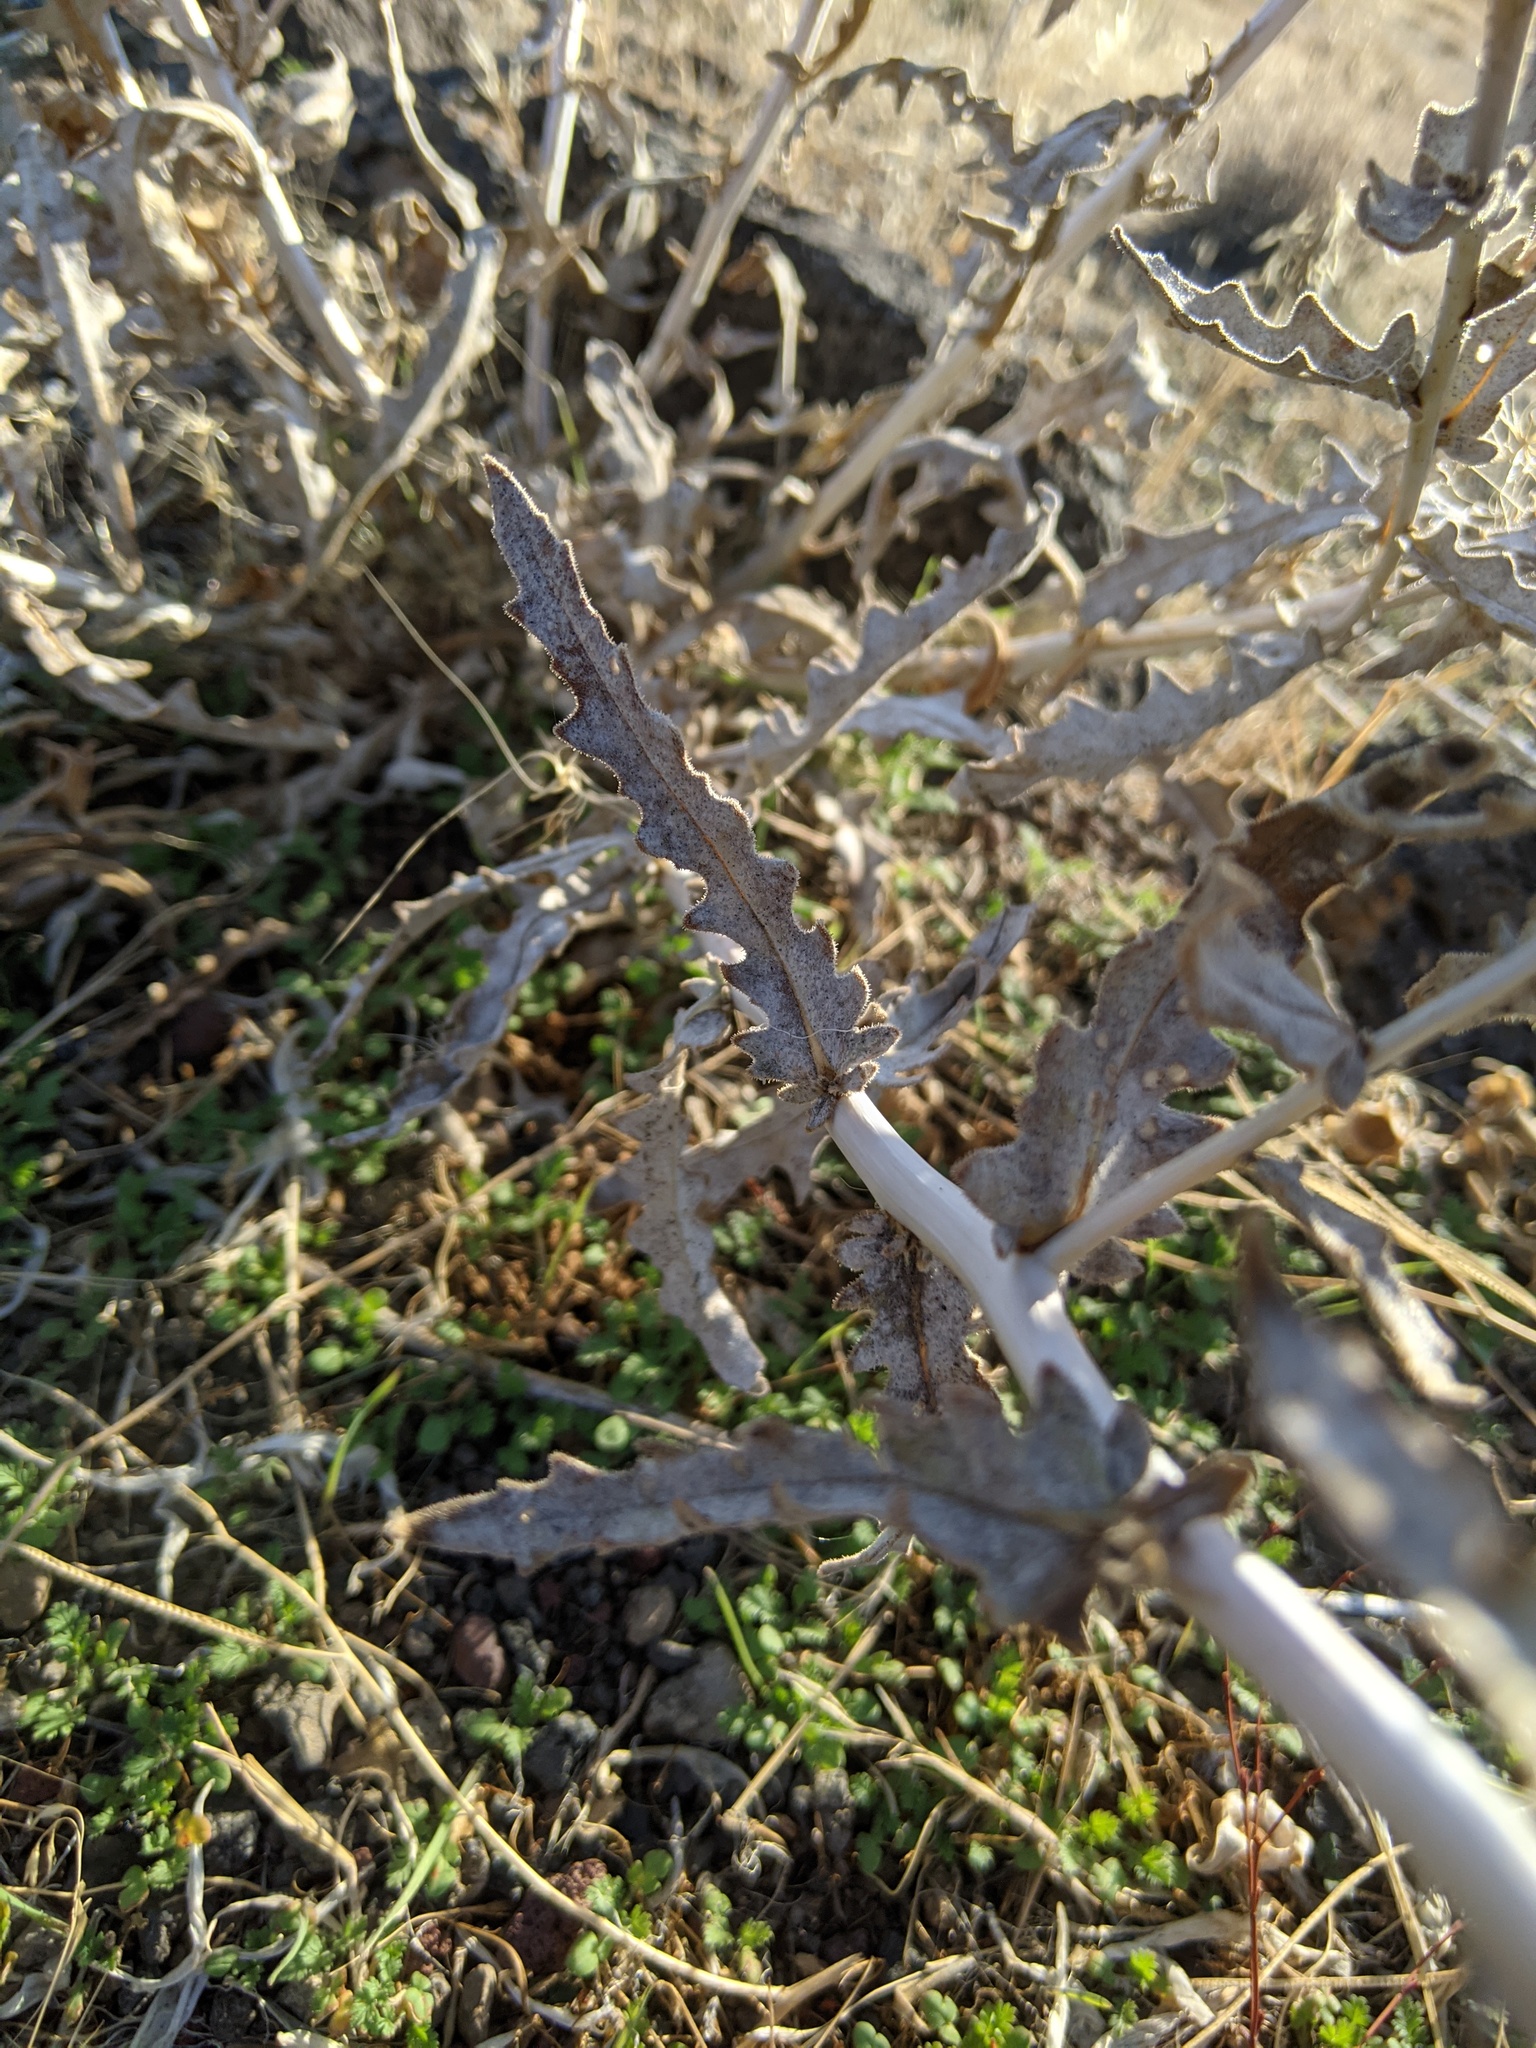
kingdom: Plantae
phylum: Tracheophyta
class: Magnoliopsida
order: Cornales
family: Loasaceae
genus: Mentzelia
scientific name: Mentzelia laevicaulis
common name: Smooth-stem blazingstar
